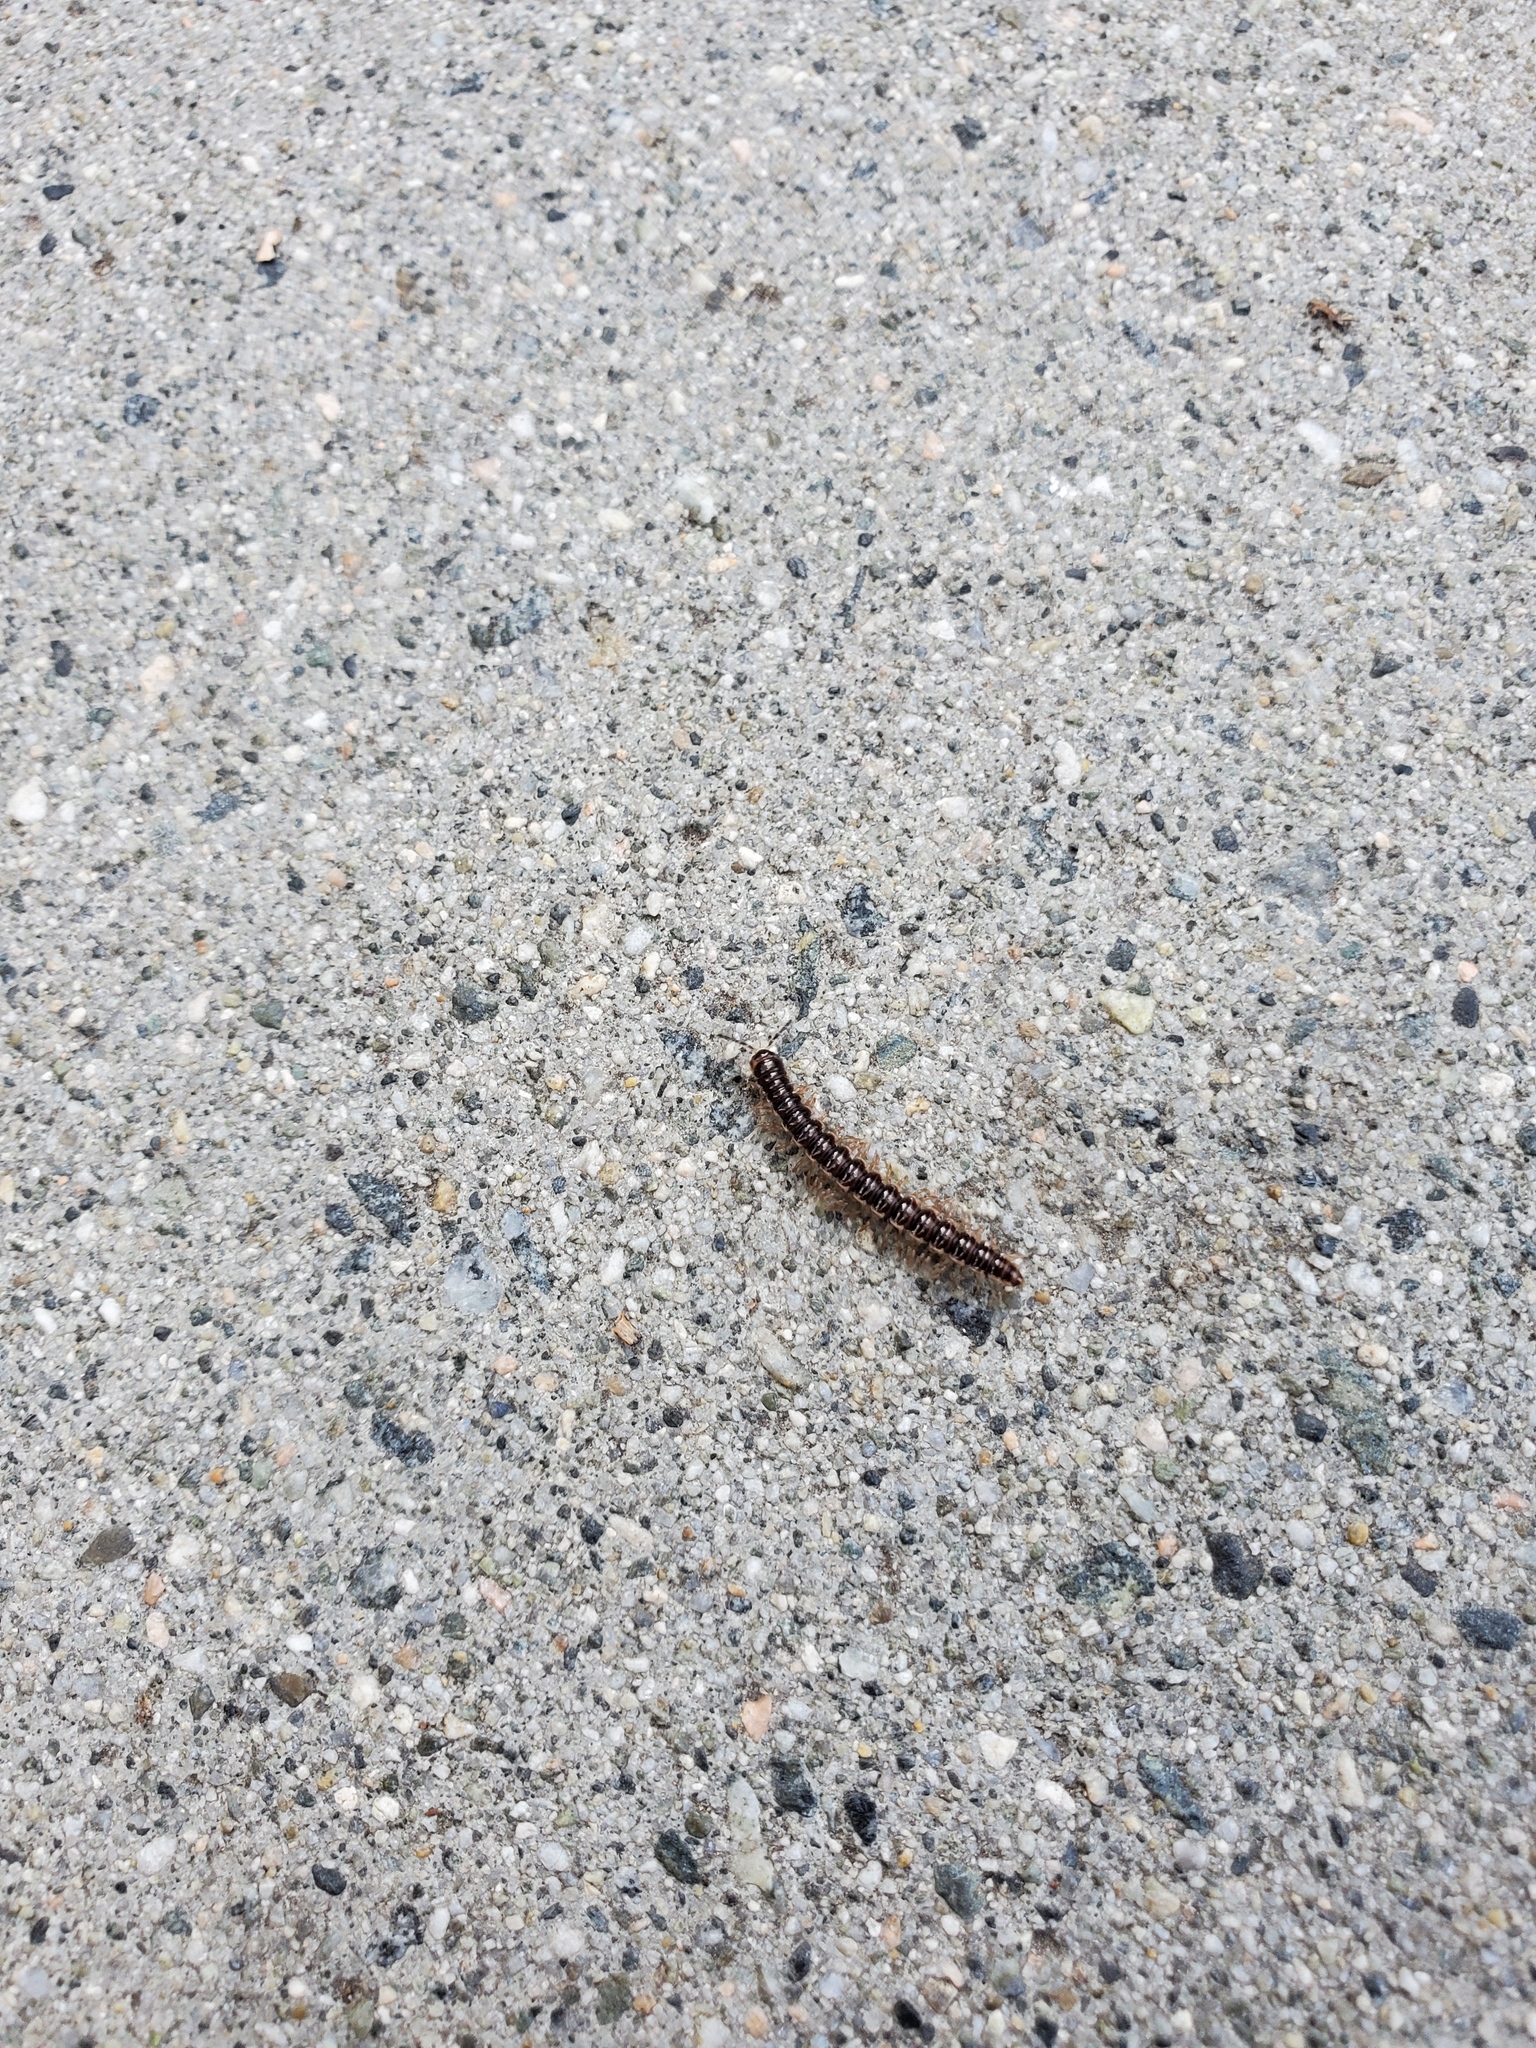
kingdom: Animalia
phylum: Arthropoda
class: Diplopoda
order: Polydesmida
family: Paradoxosomatidae
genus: Oxidus
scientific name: Oxidus gracilis
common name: Greenhouse millipede
